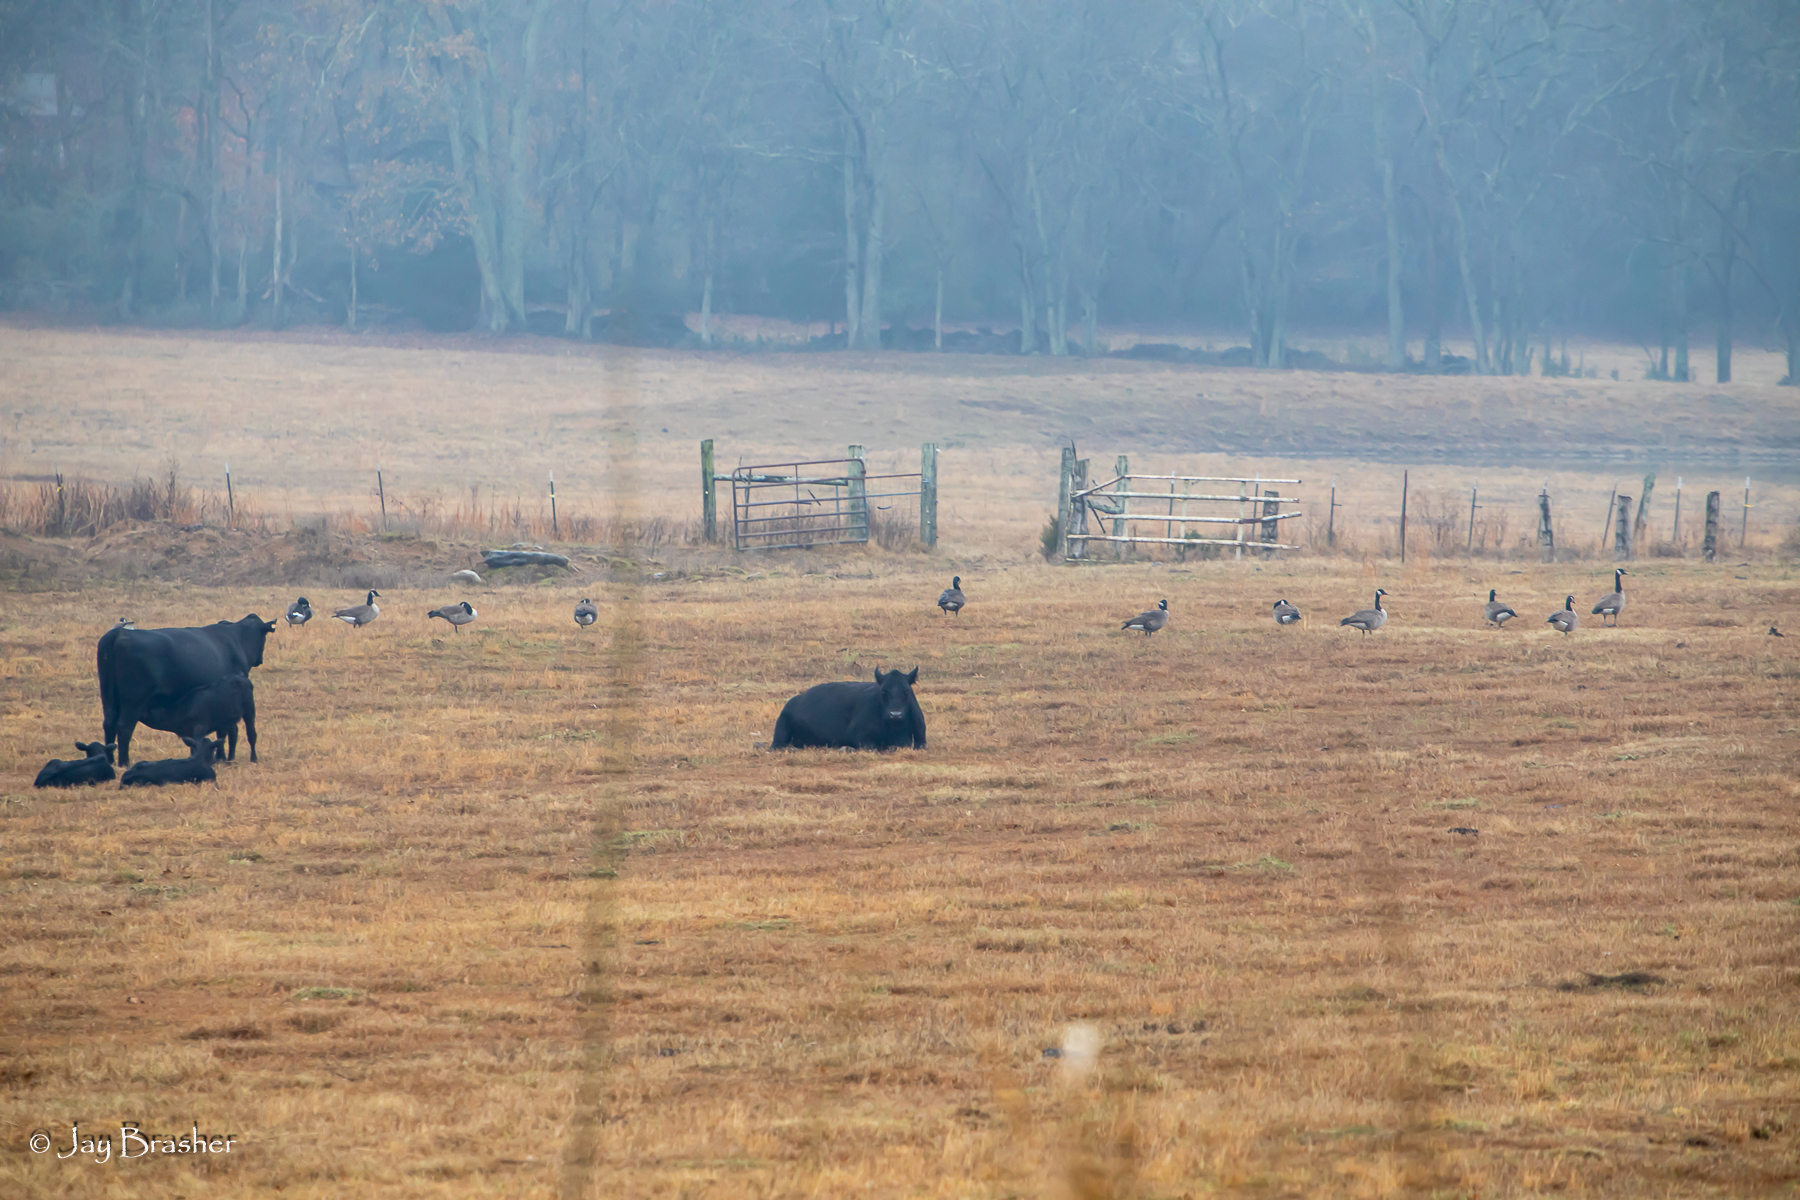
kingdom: Animalia
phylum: Chordata
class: Aves
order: Anseriformes
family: Anatidae
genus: Branta
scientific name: Branta canadensis
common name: Canada goose
